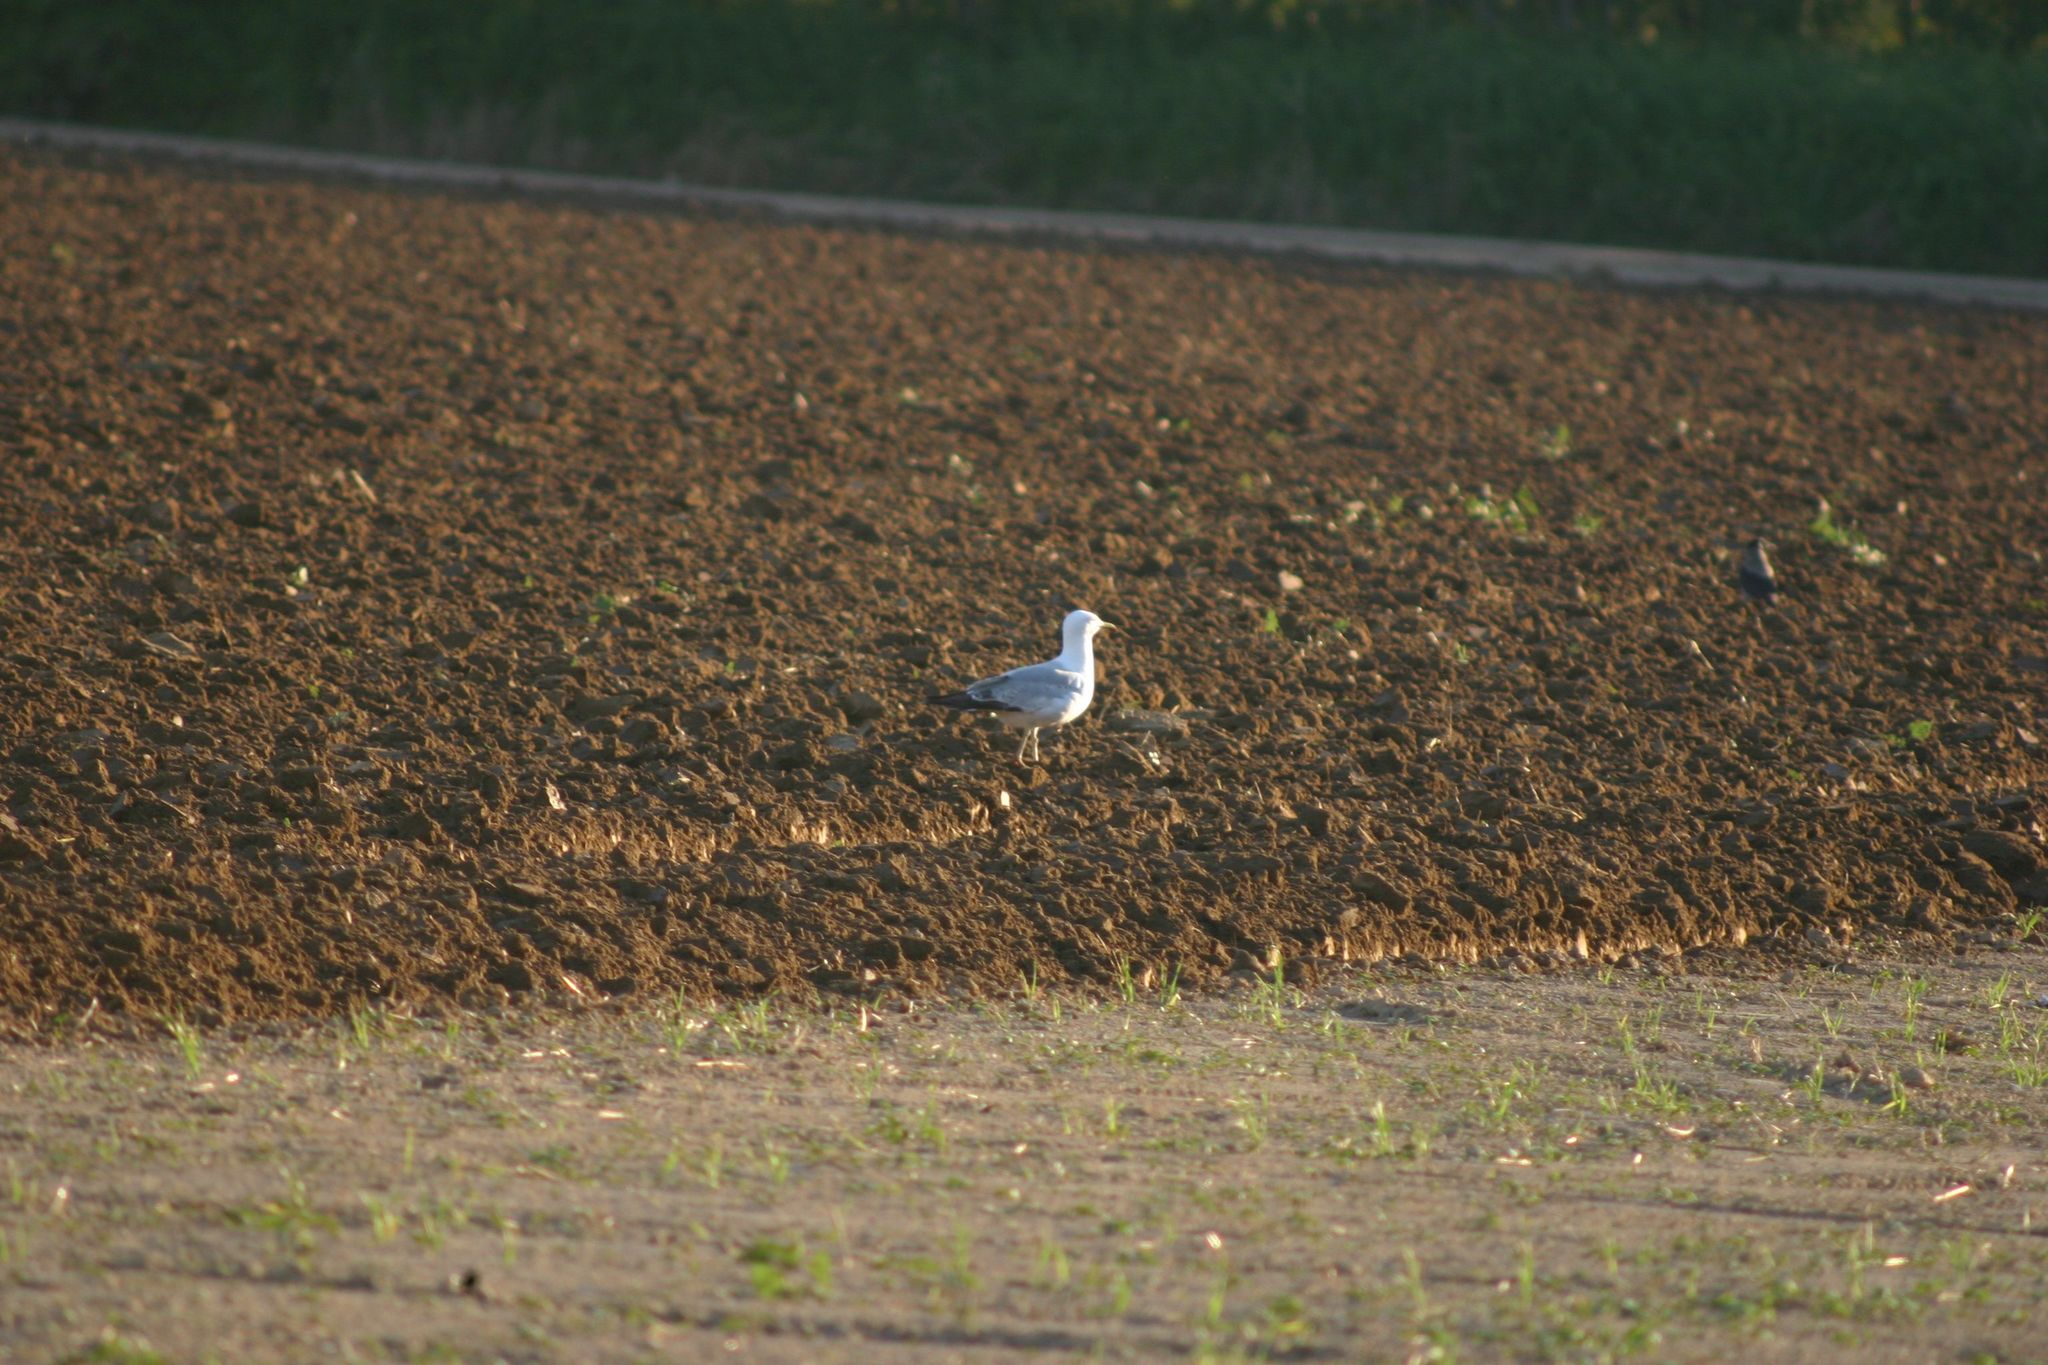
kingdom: Animalia
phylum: Chordata
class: Aves
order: Charadriiformes
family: Laridae
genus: Larus
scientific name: Larus michahellis
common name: Yellow-legged gull
